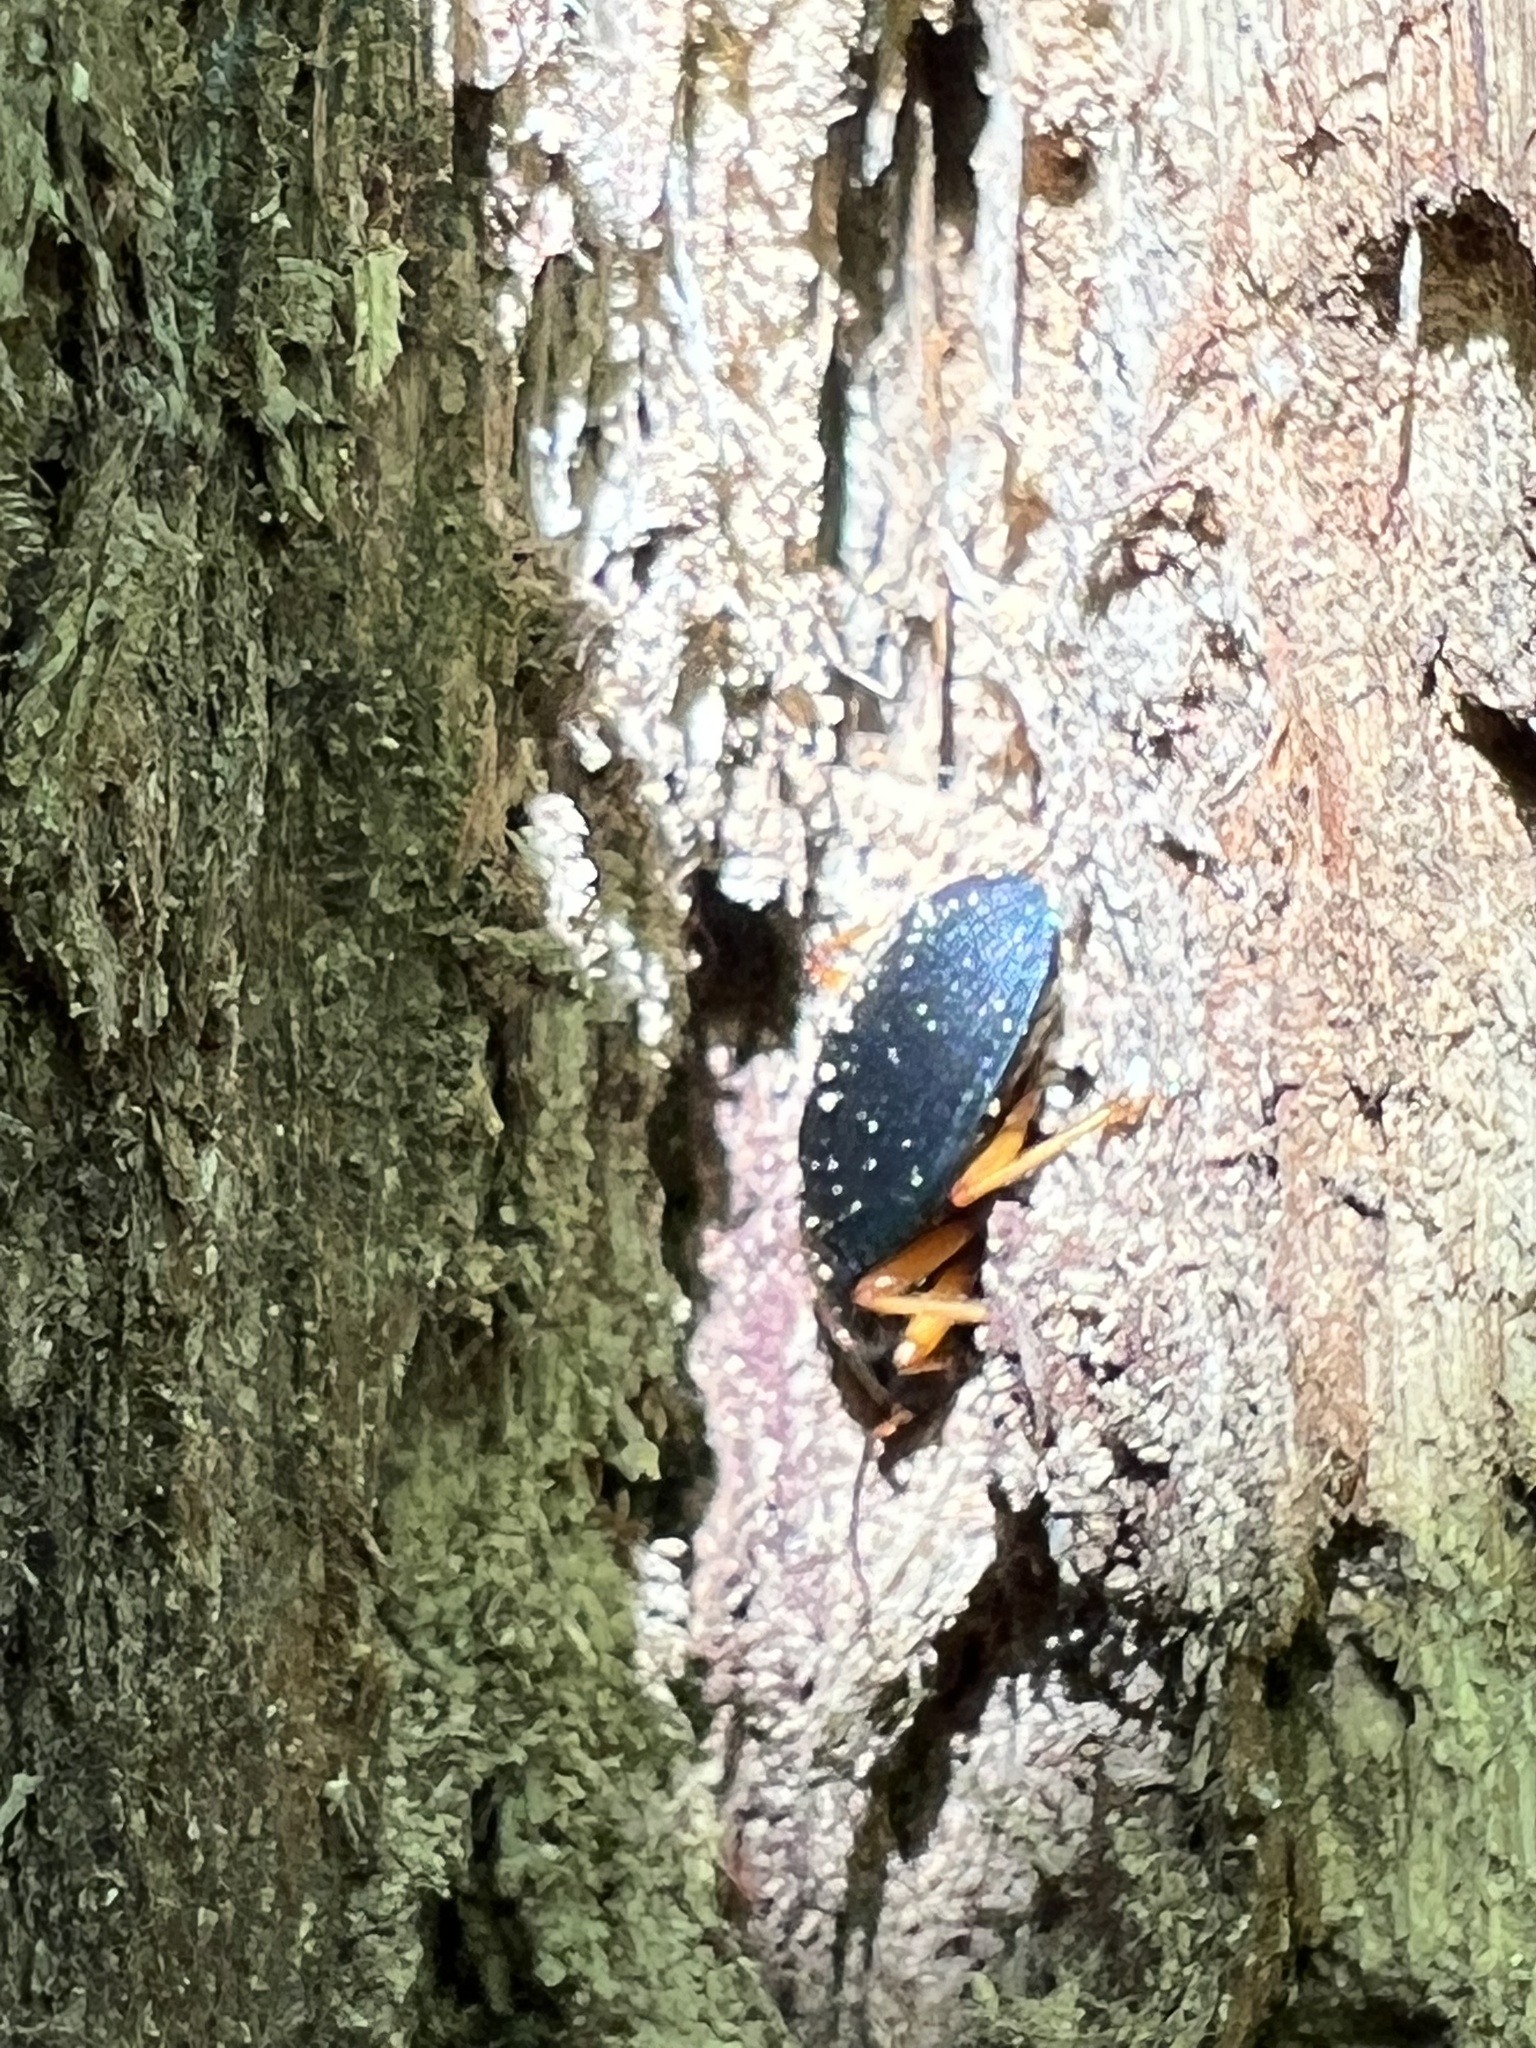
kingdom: Animalia
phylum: Arthropoda
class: Insecta
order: Coleoptera
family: Carabidae
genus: Chlaenius
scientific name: Chlaenius aestivus
